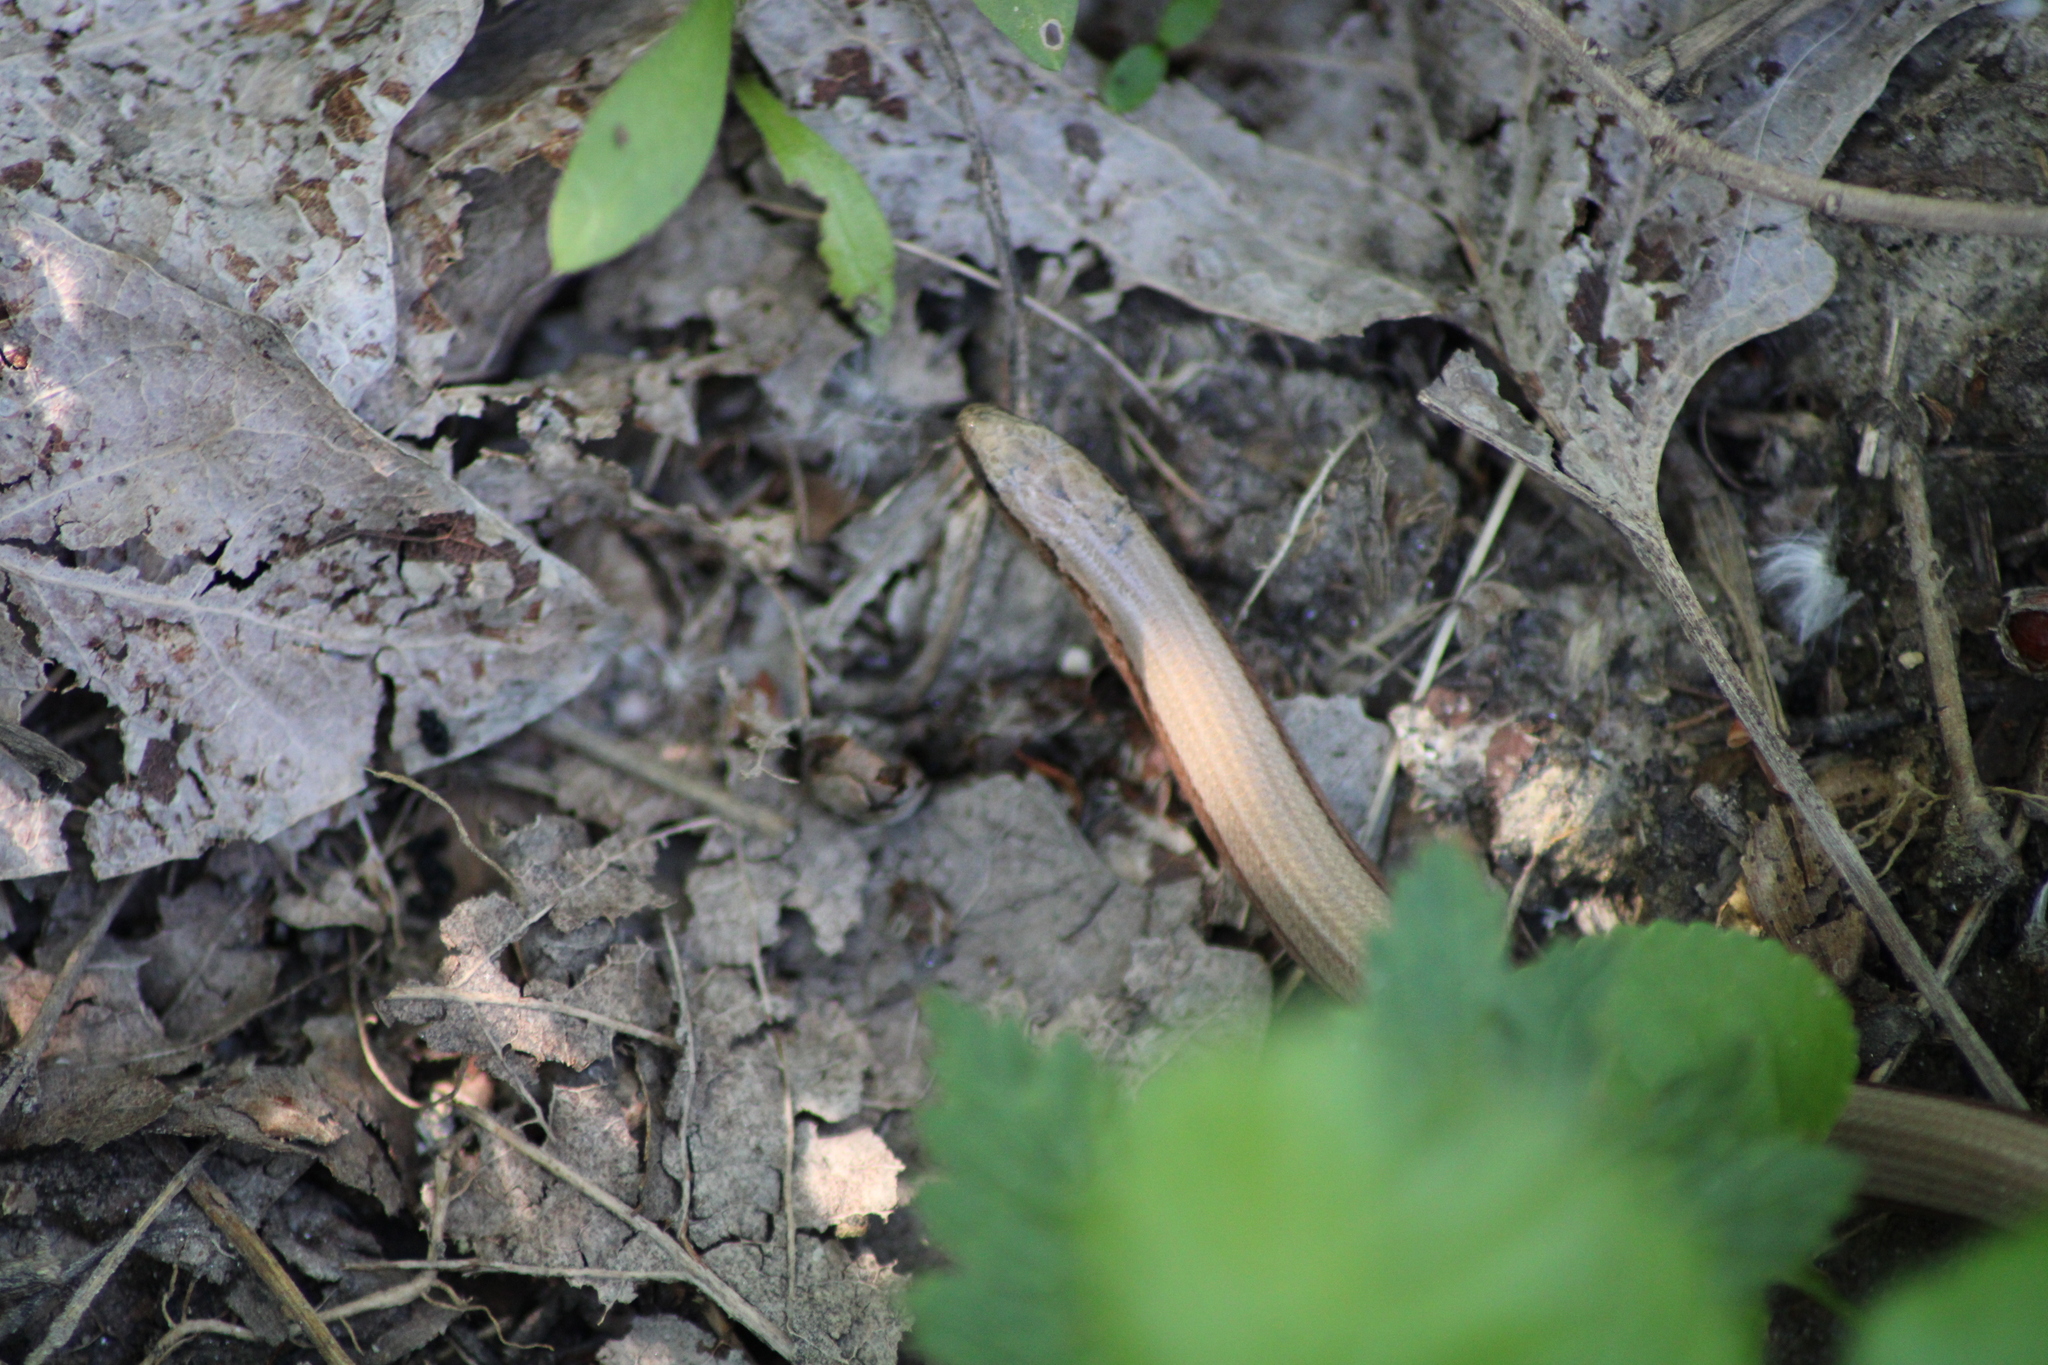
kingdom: Animalia
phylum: Chordata
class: Squamata
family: Anguidae
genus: Anguis
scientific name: Anguis fragilis
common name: Slow worm
